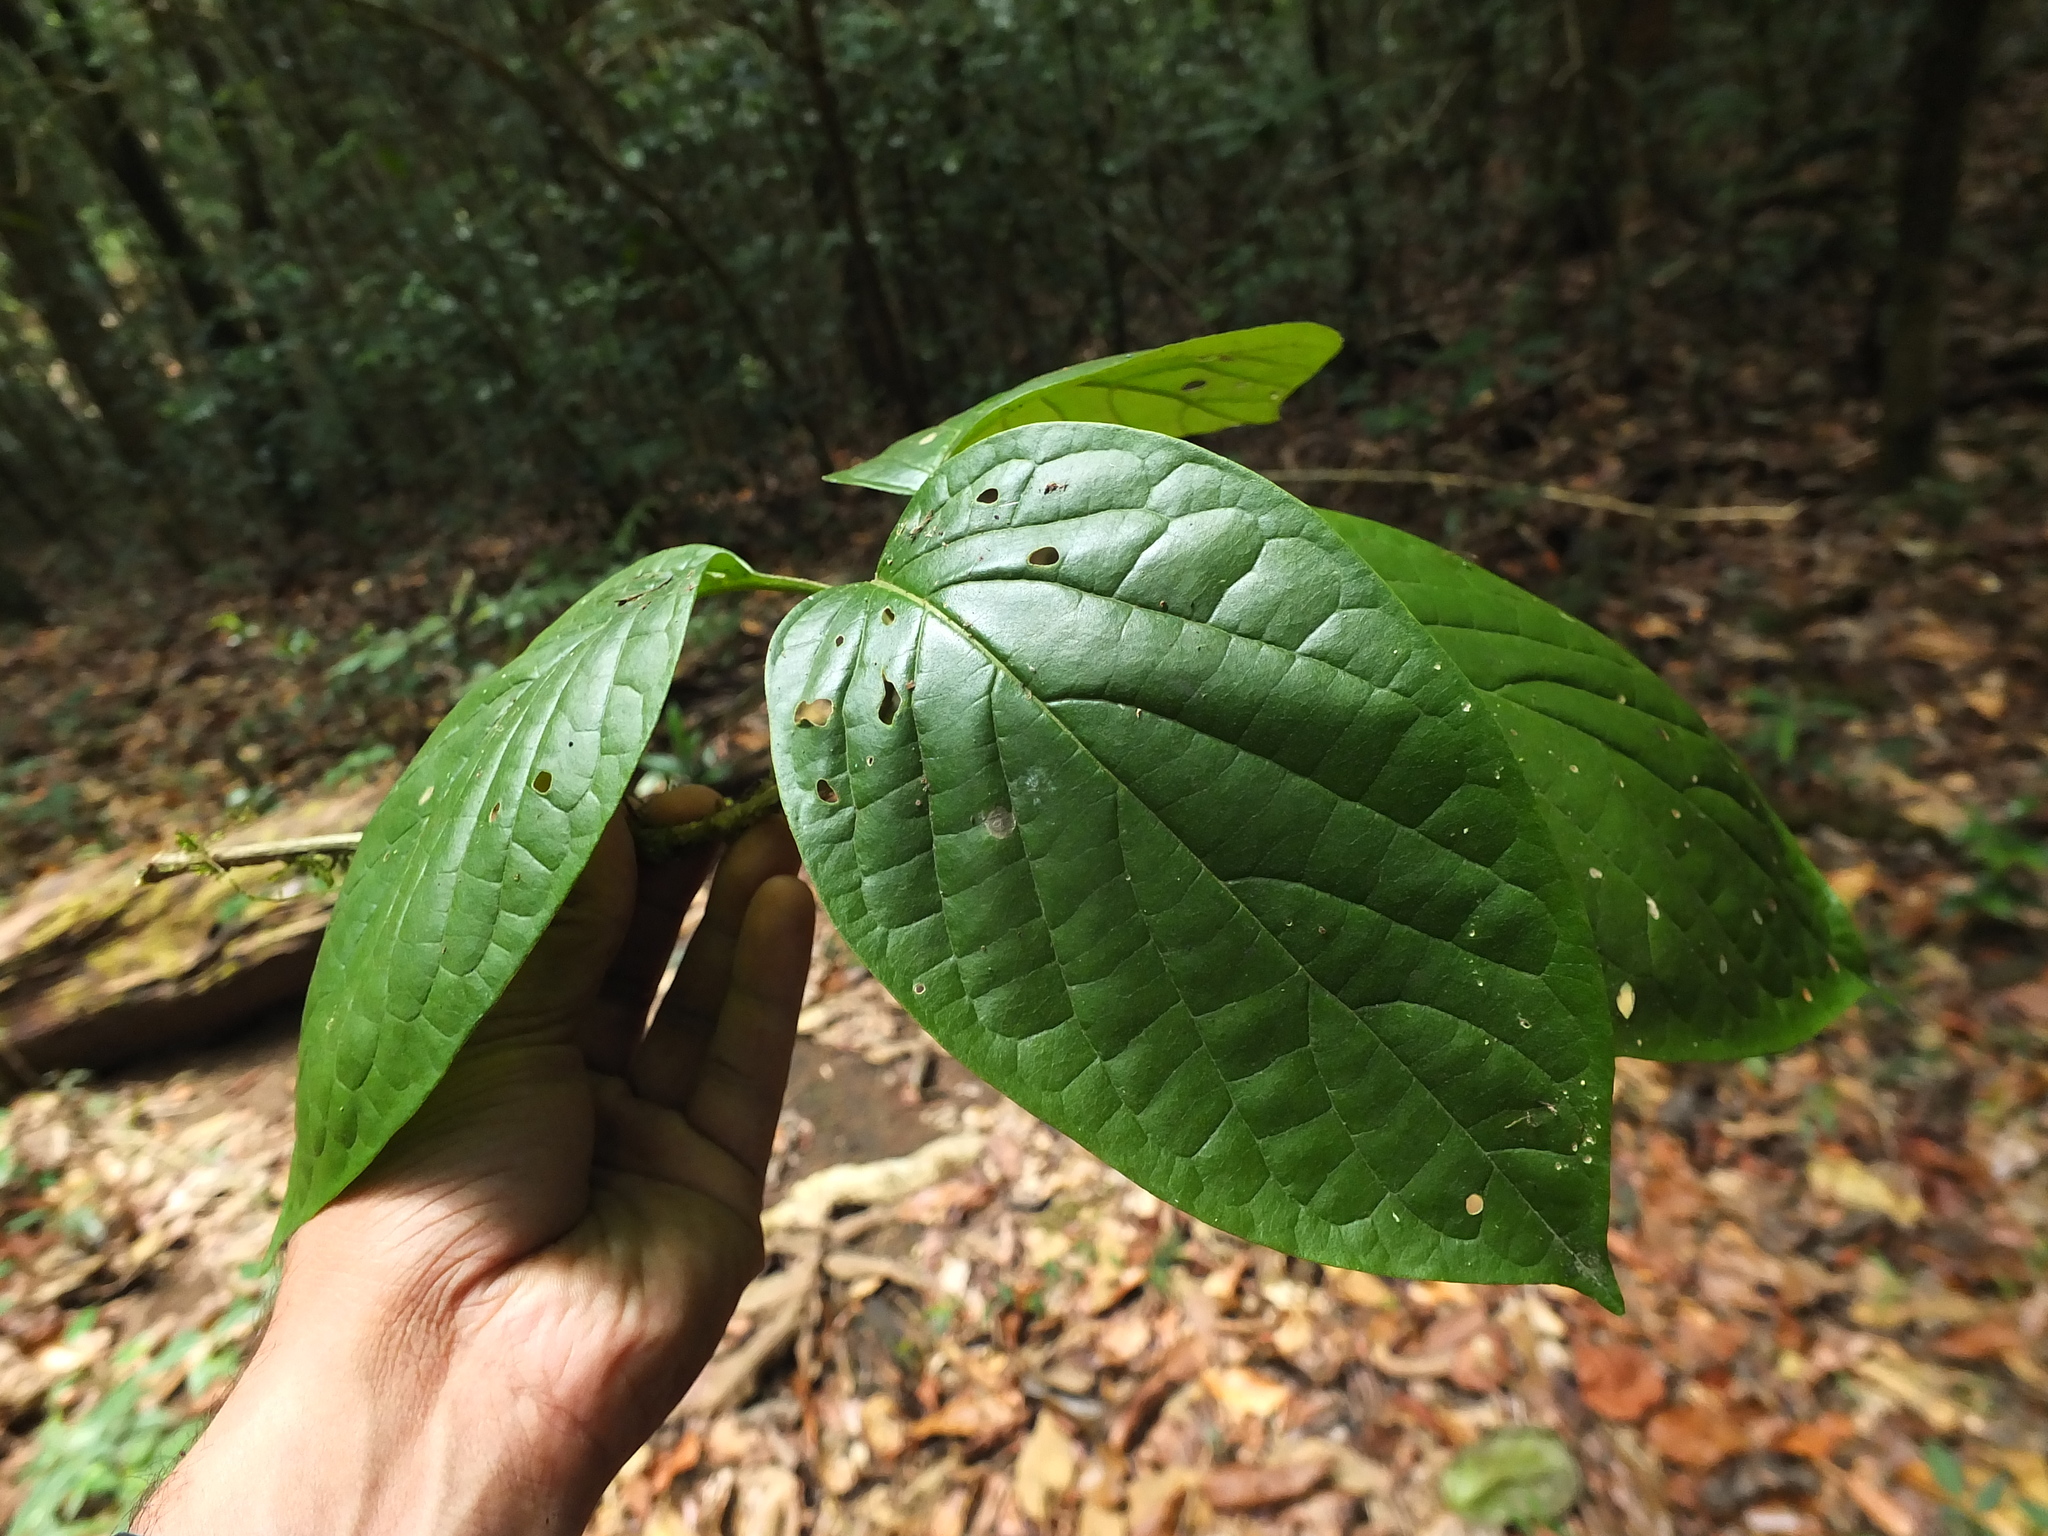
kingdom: Plantae
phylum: Tracheophyta
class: Magnoliopsida
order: Icacinales
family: Icacinaceae
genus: Nothapodytes
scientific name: Nothapodytes nimmoniana
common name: Nothapodytes
